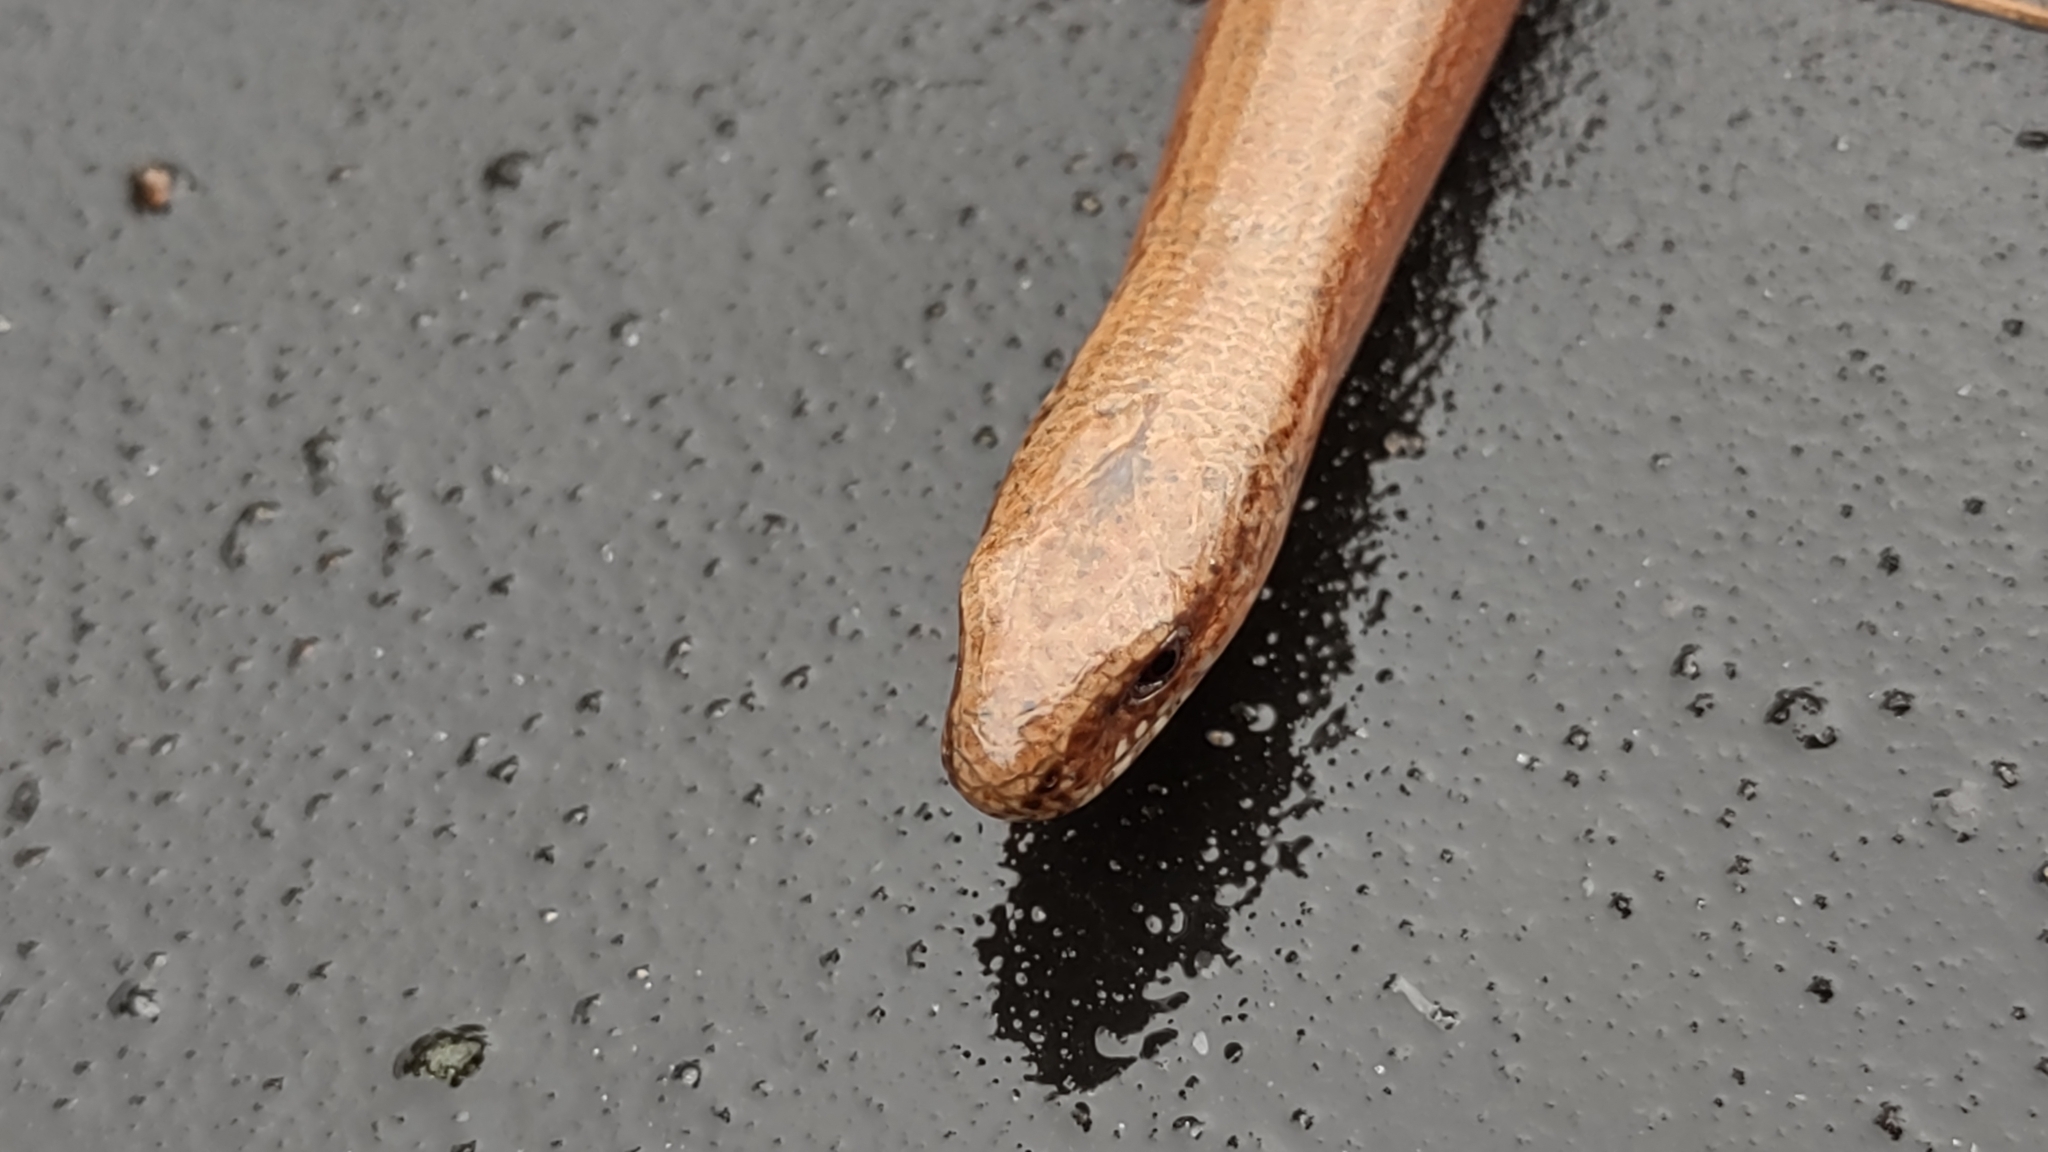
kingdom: Animalia
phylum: Chordata
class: Squamata
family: Anguidae
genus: Anguis
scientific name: Anguis fragilis
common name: Slow worm
